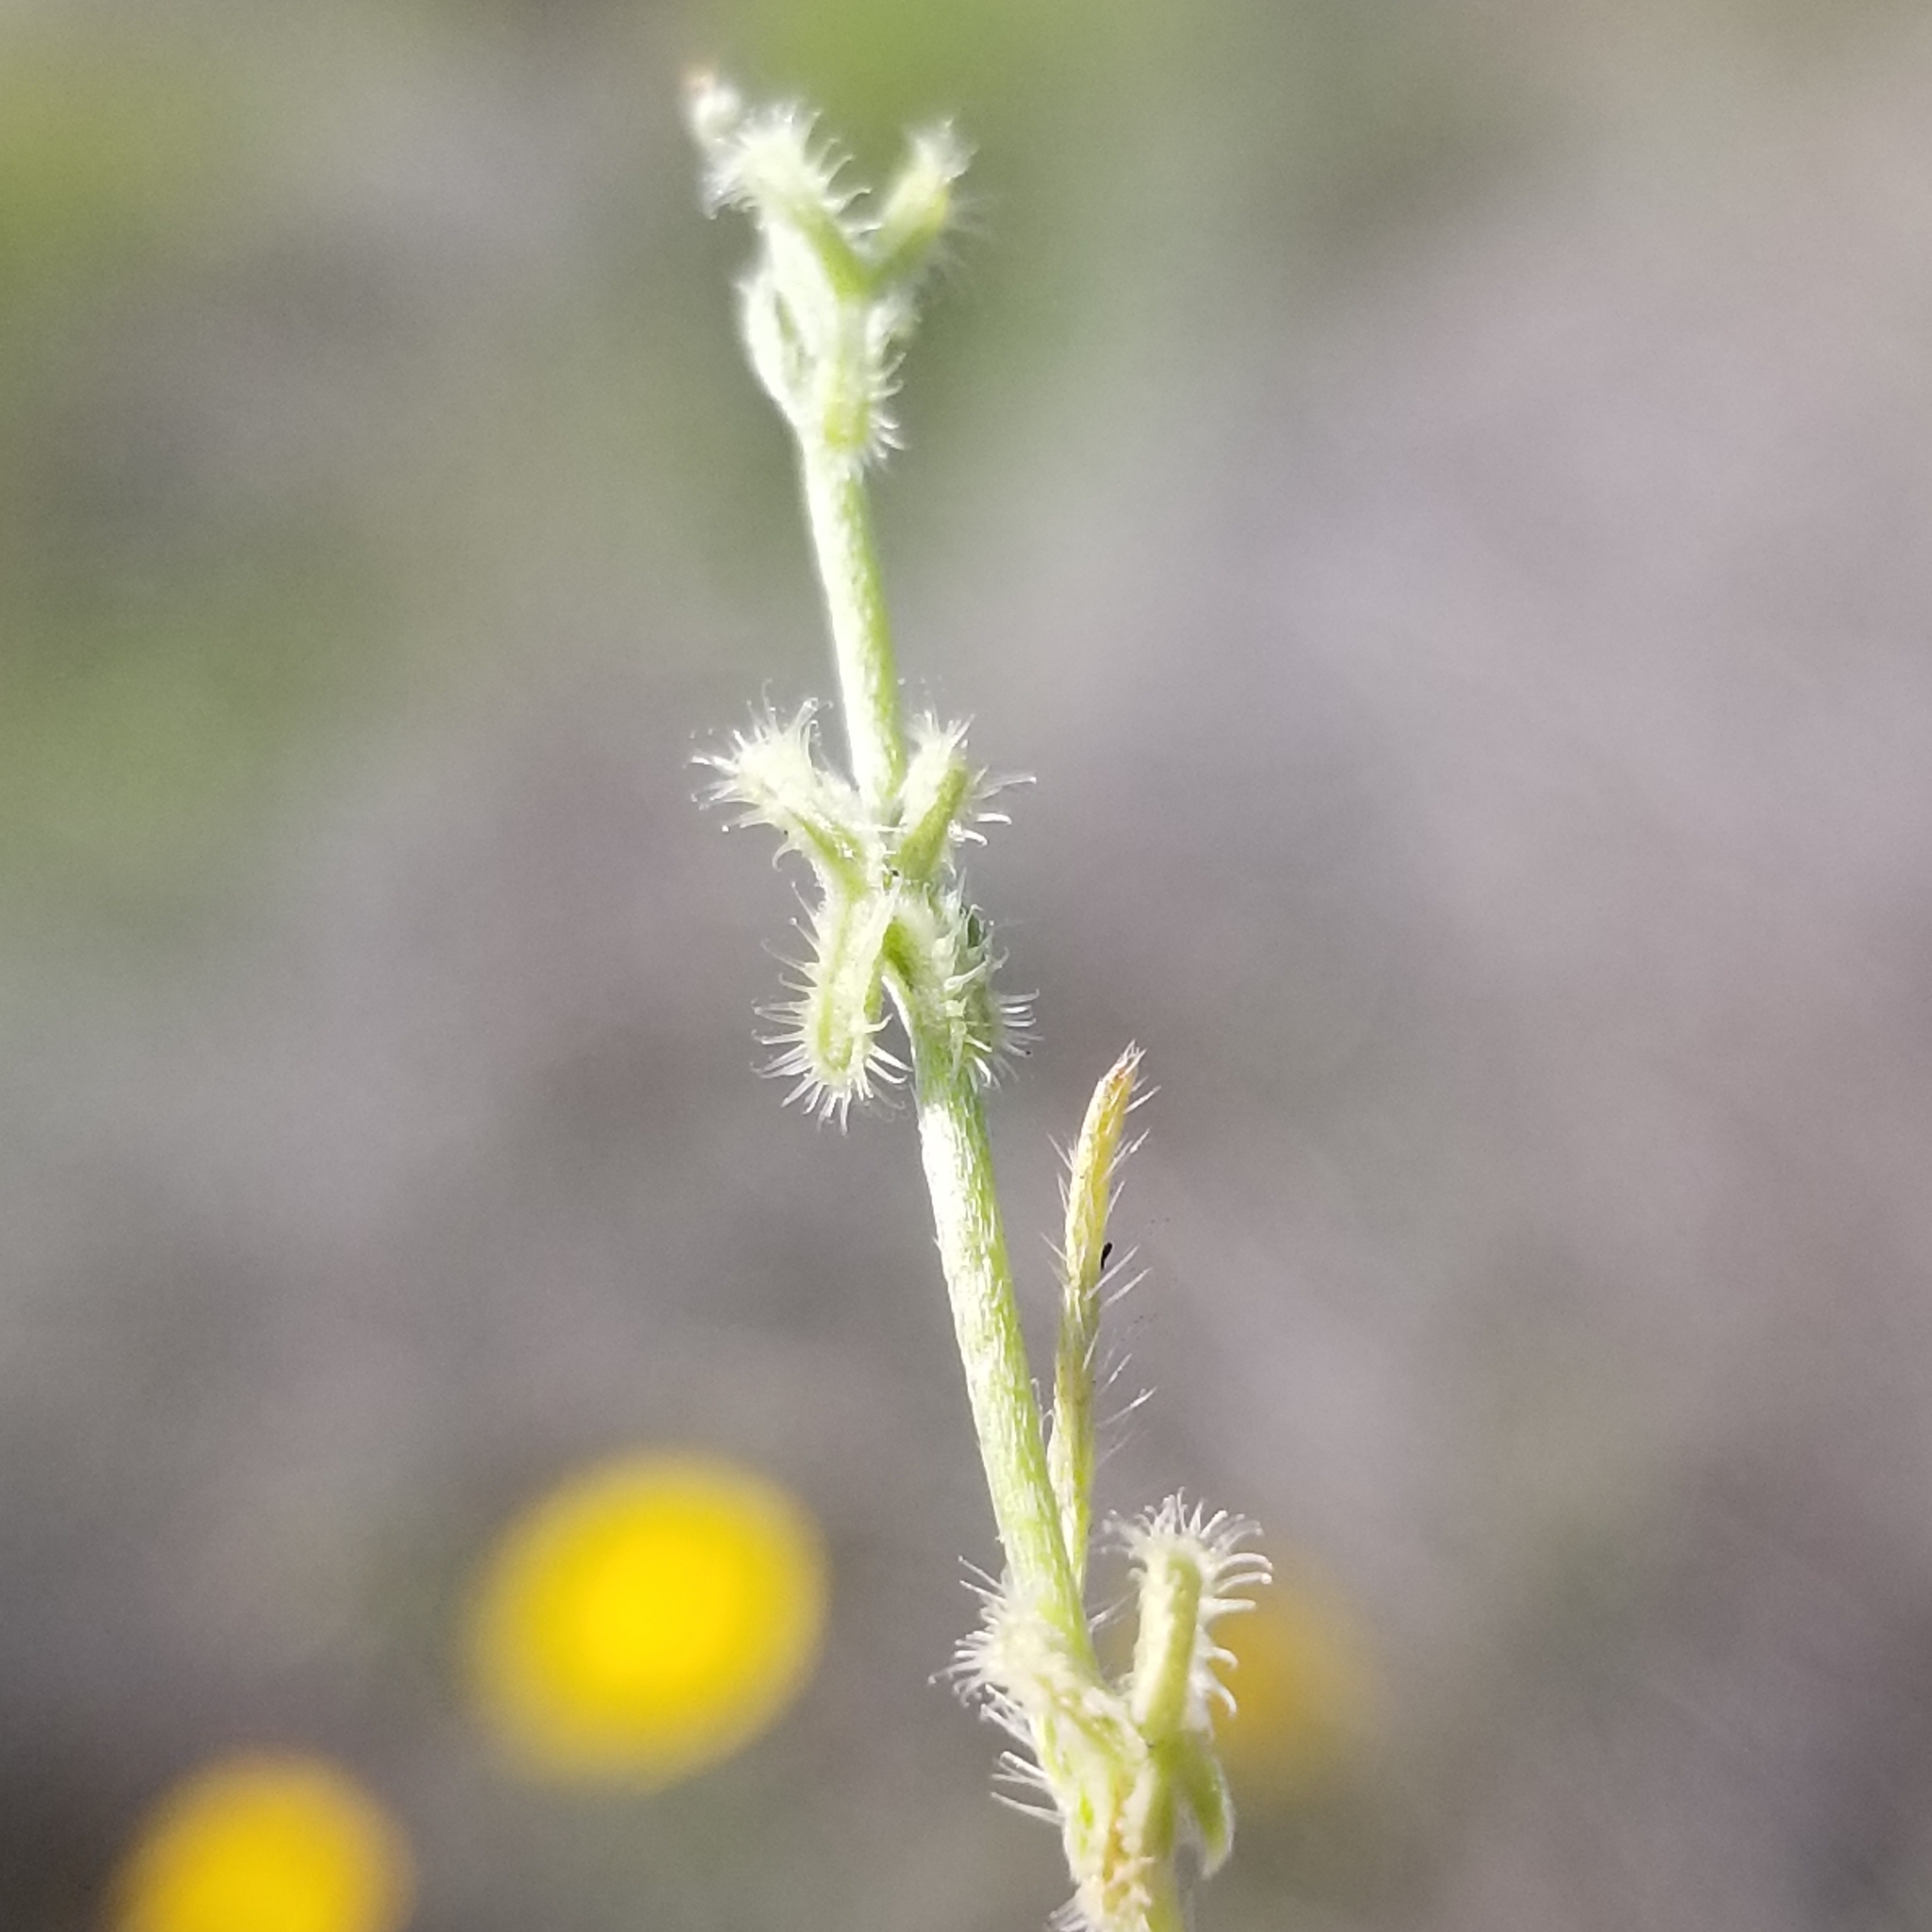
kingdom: Plantae
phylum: Tracheophyta
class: Magnoliopsida
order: Boraginales
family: Boraginaceae
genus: Pectocarya
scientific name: Pectocarya linearis
